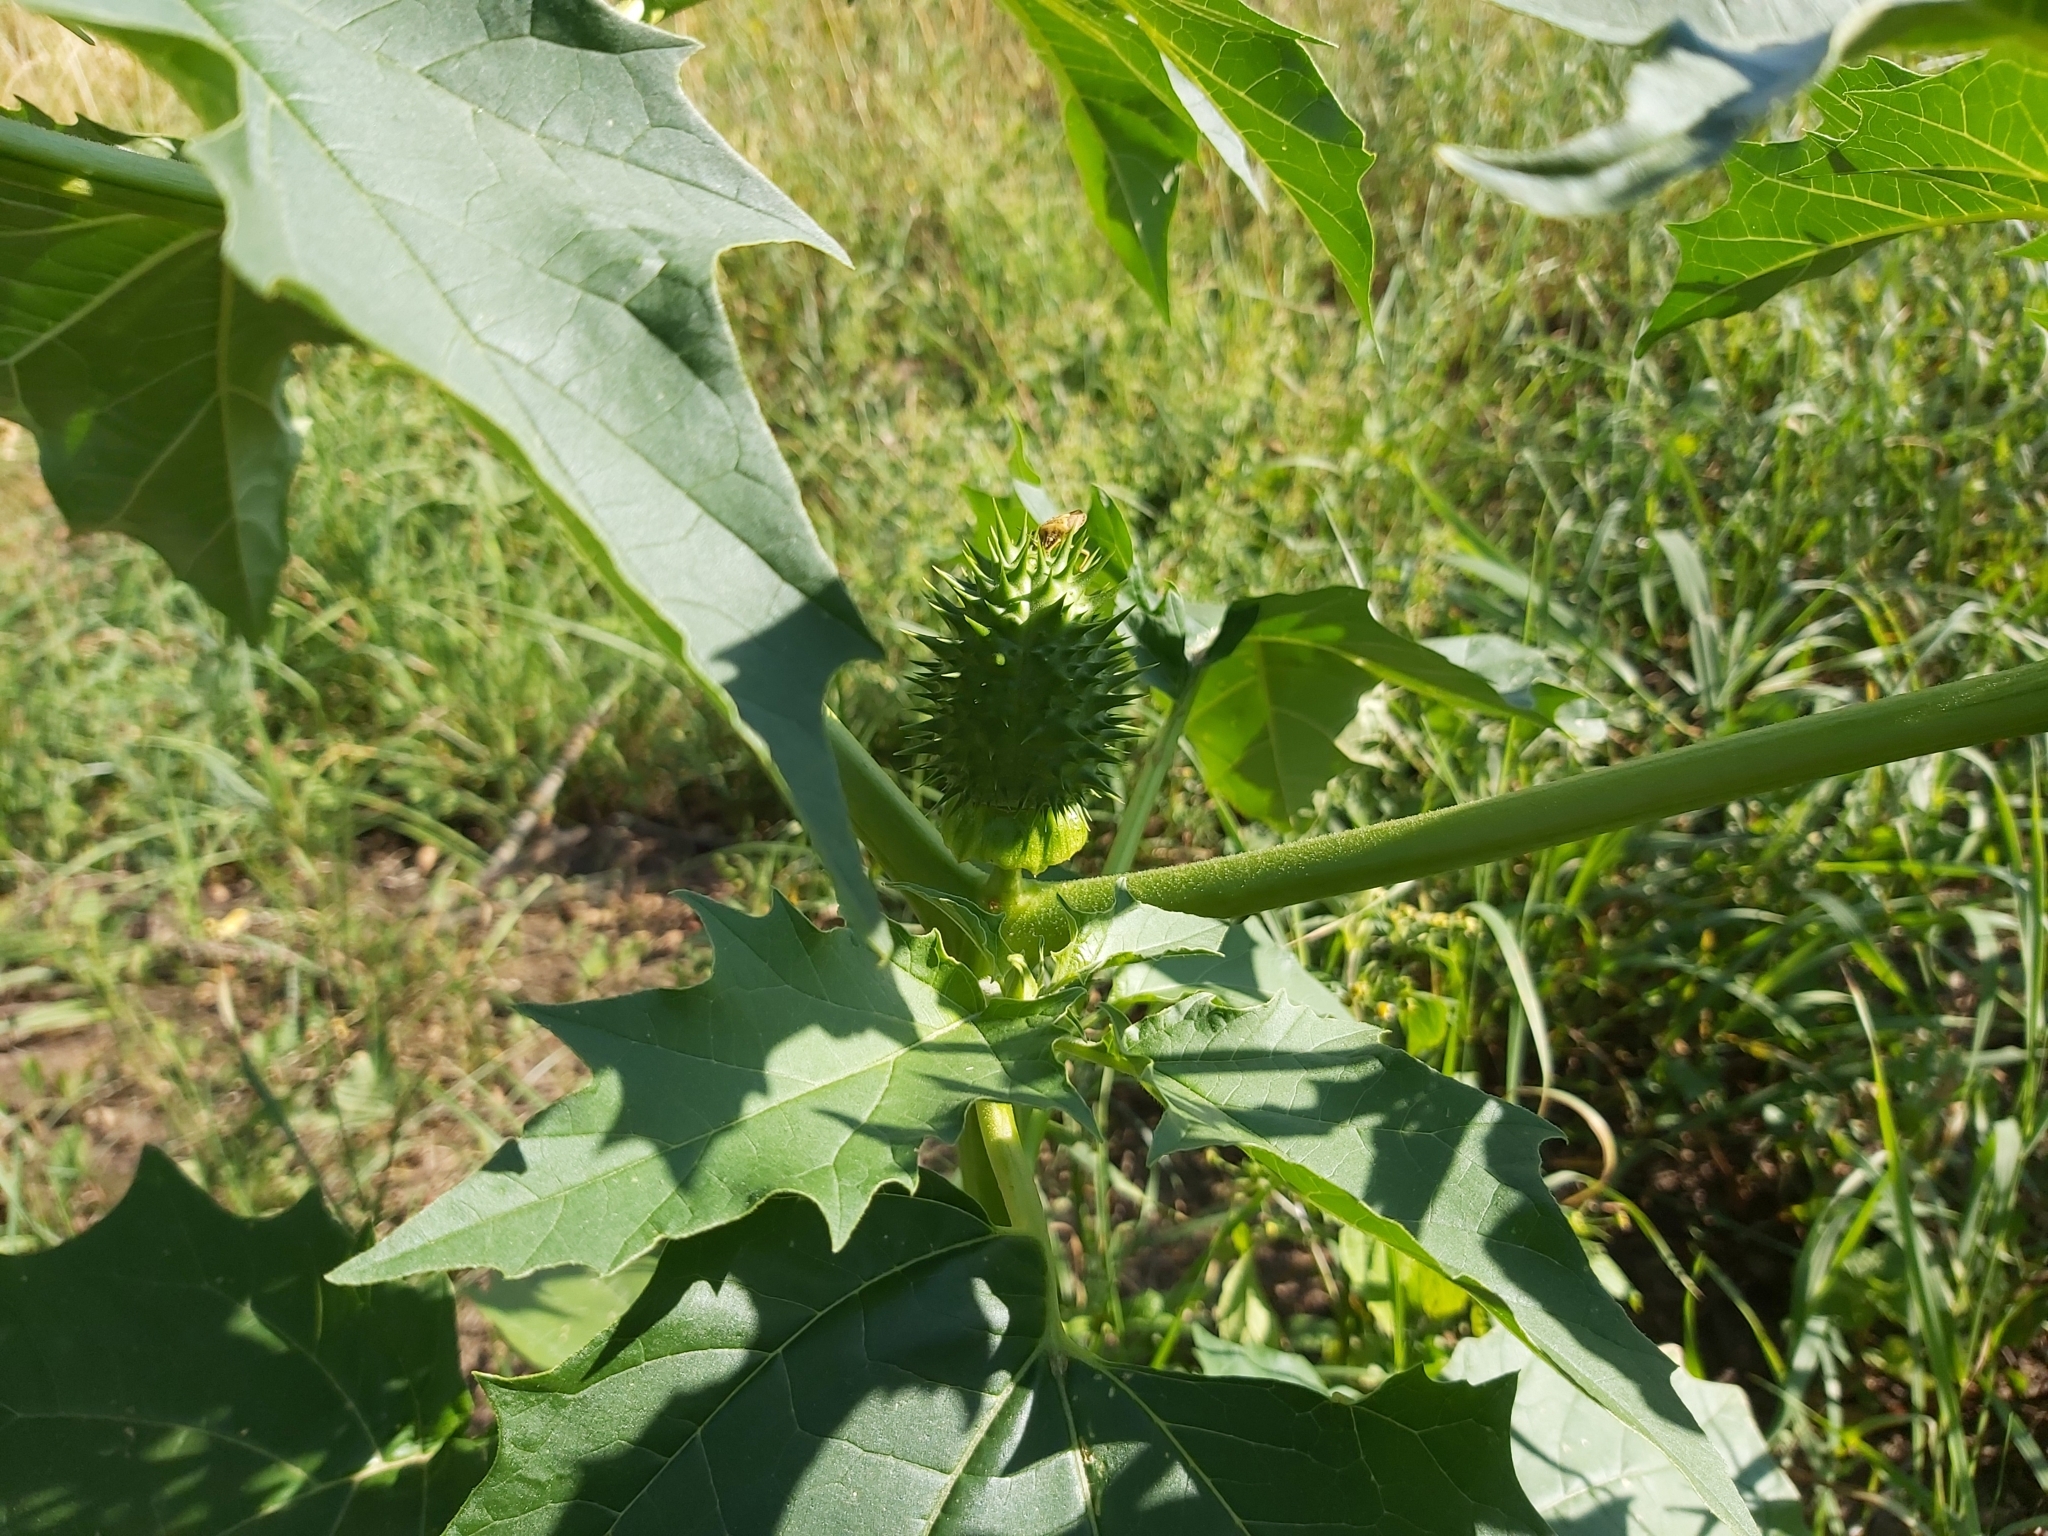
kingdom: Plantae
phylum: Tracheophyta
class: Magnoliopsida
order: Solanales
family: Solanaceae
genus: Datura
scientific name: Datura stramonium
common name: Thorn-apple
